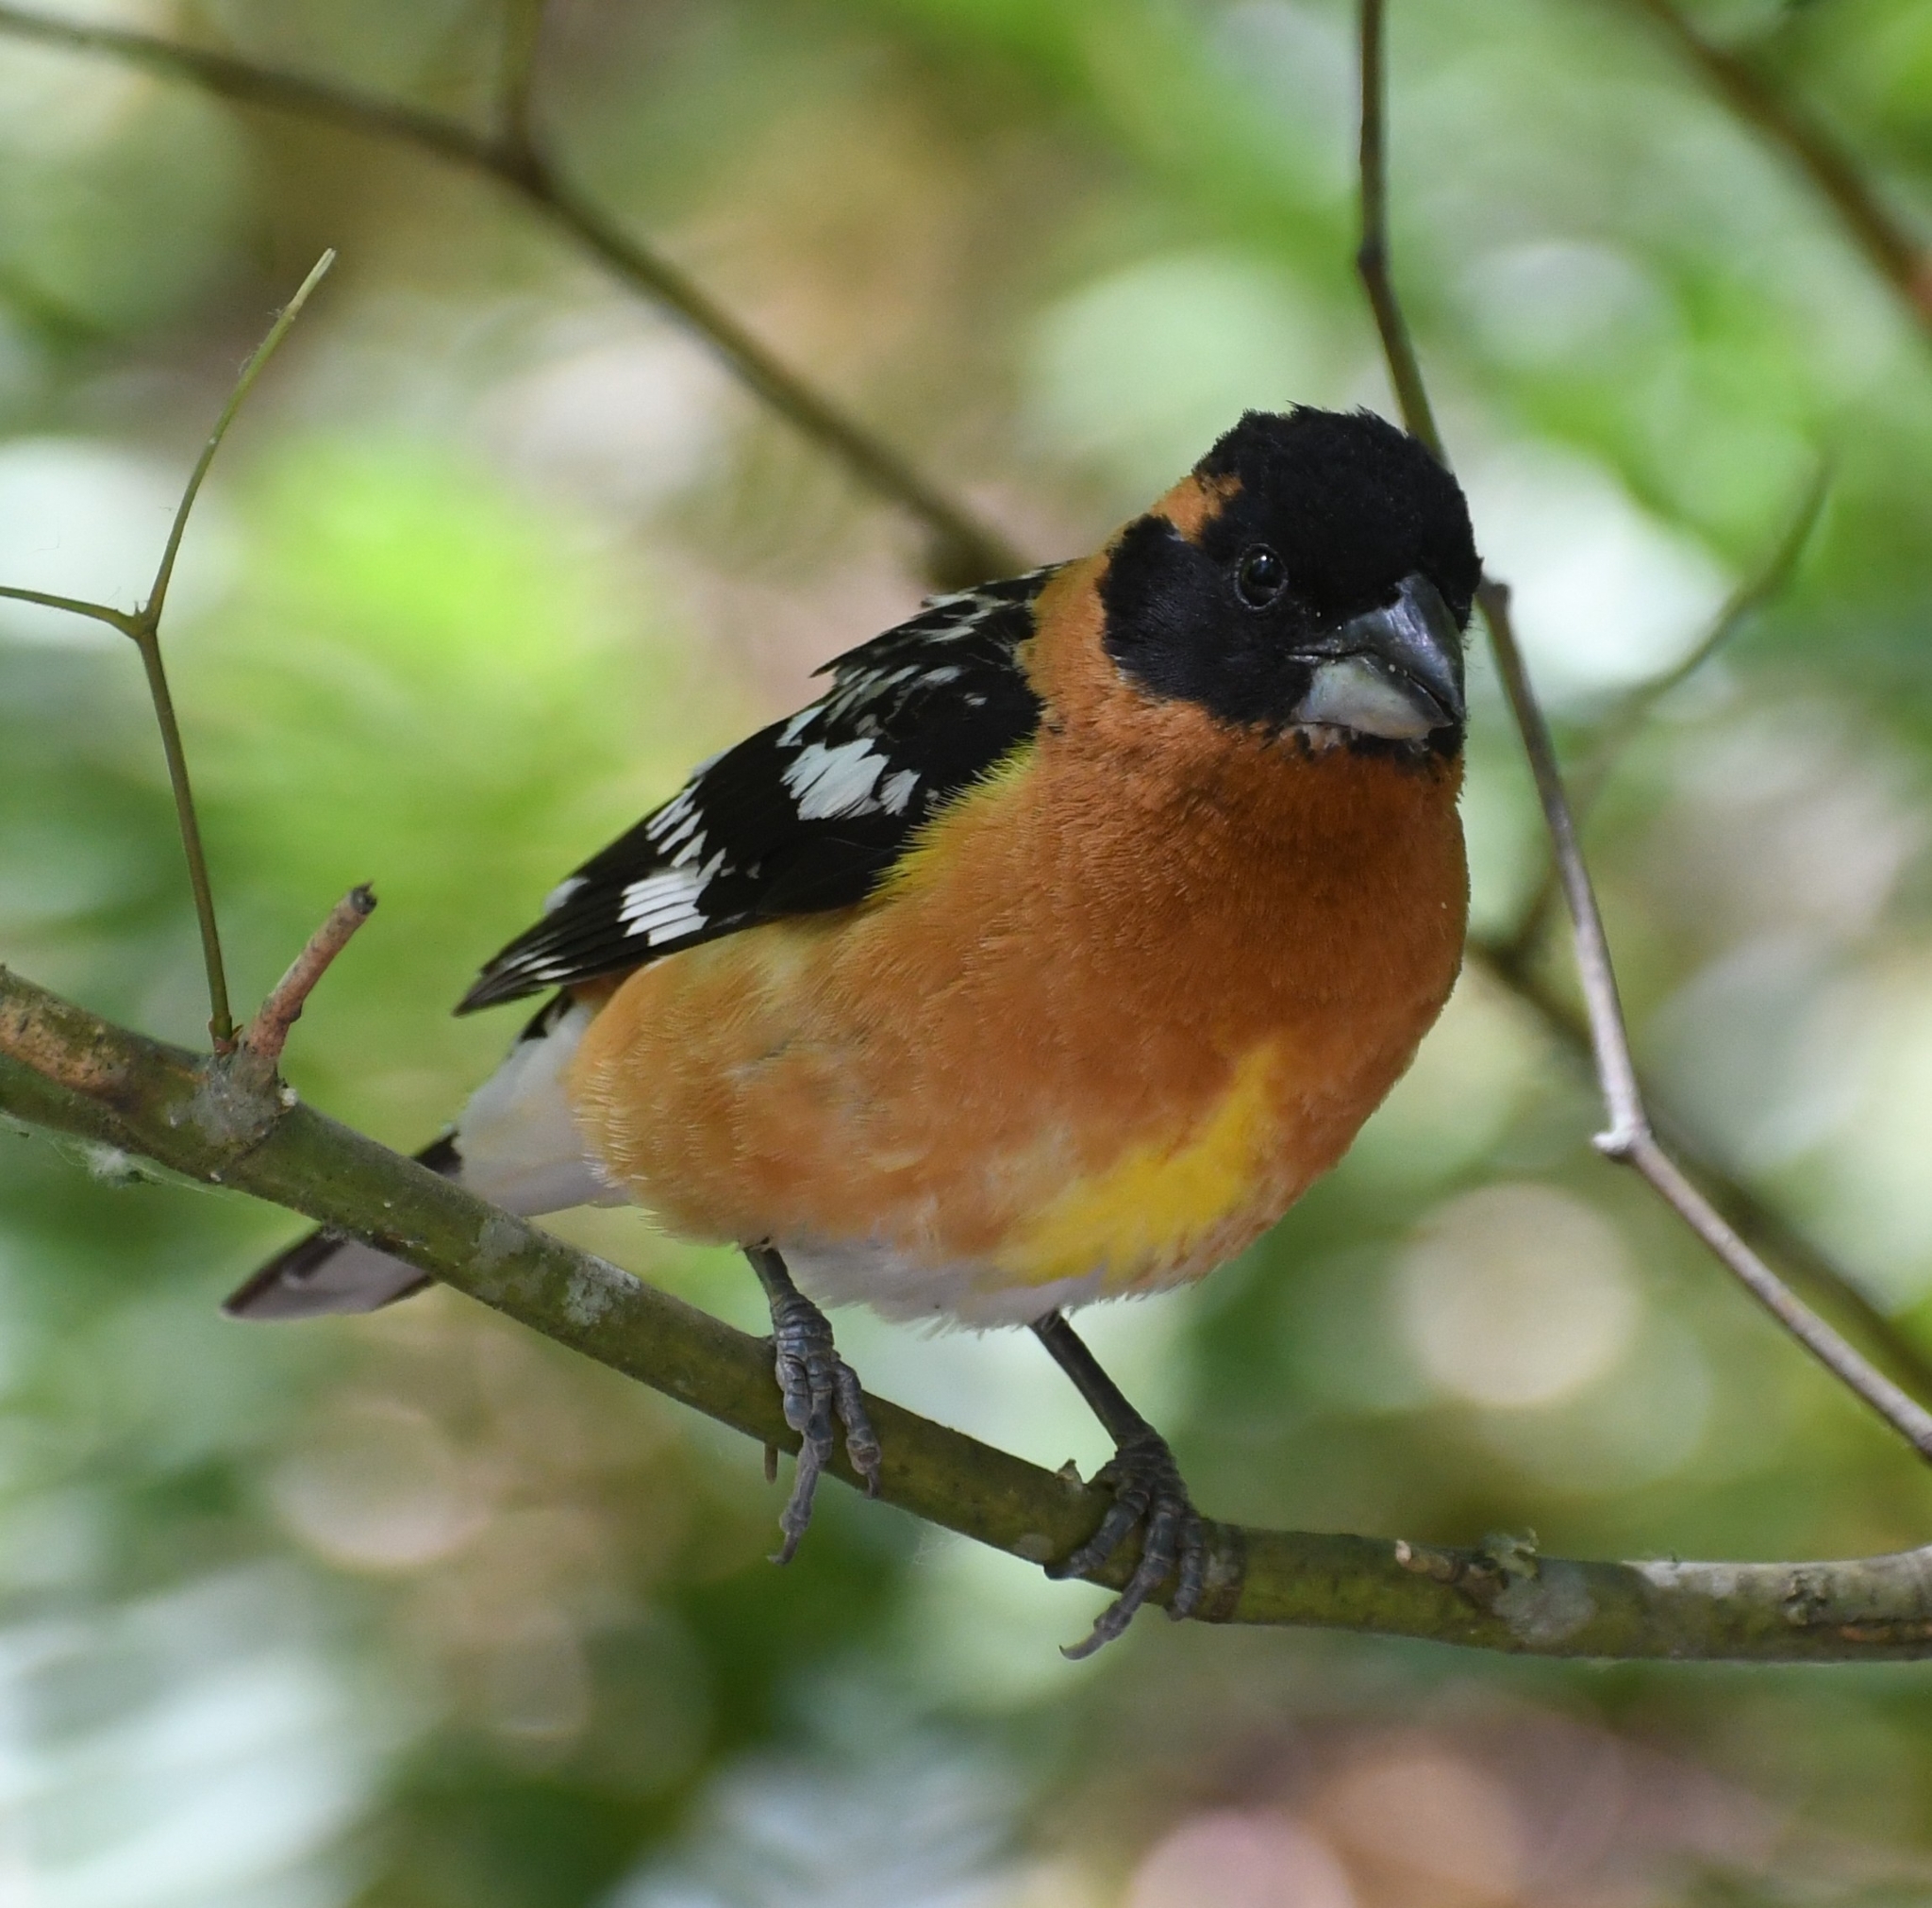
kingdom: Animalia
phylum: Chordata
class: Aves
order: Passeriformes
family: Cardinalidae
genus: Pheucticus
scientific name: Pheucticus melanocephalus
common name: Black-headed grosbeak
